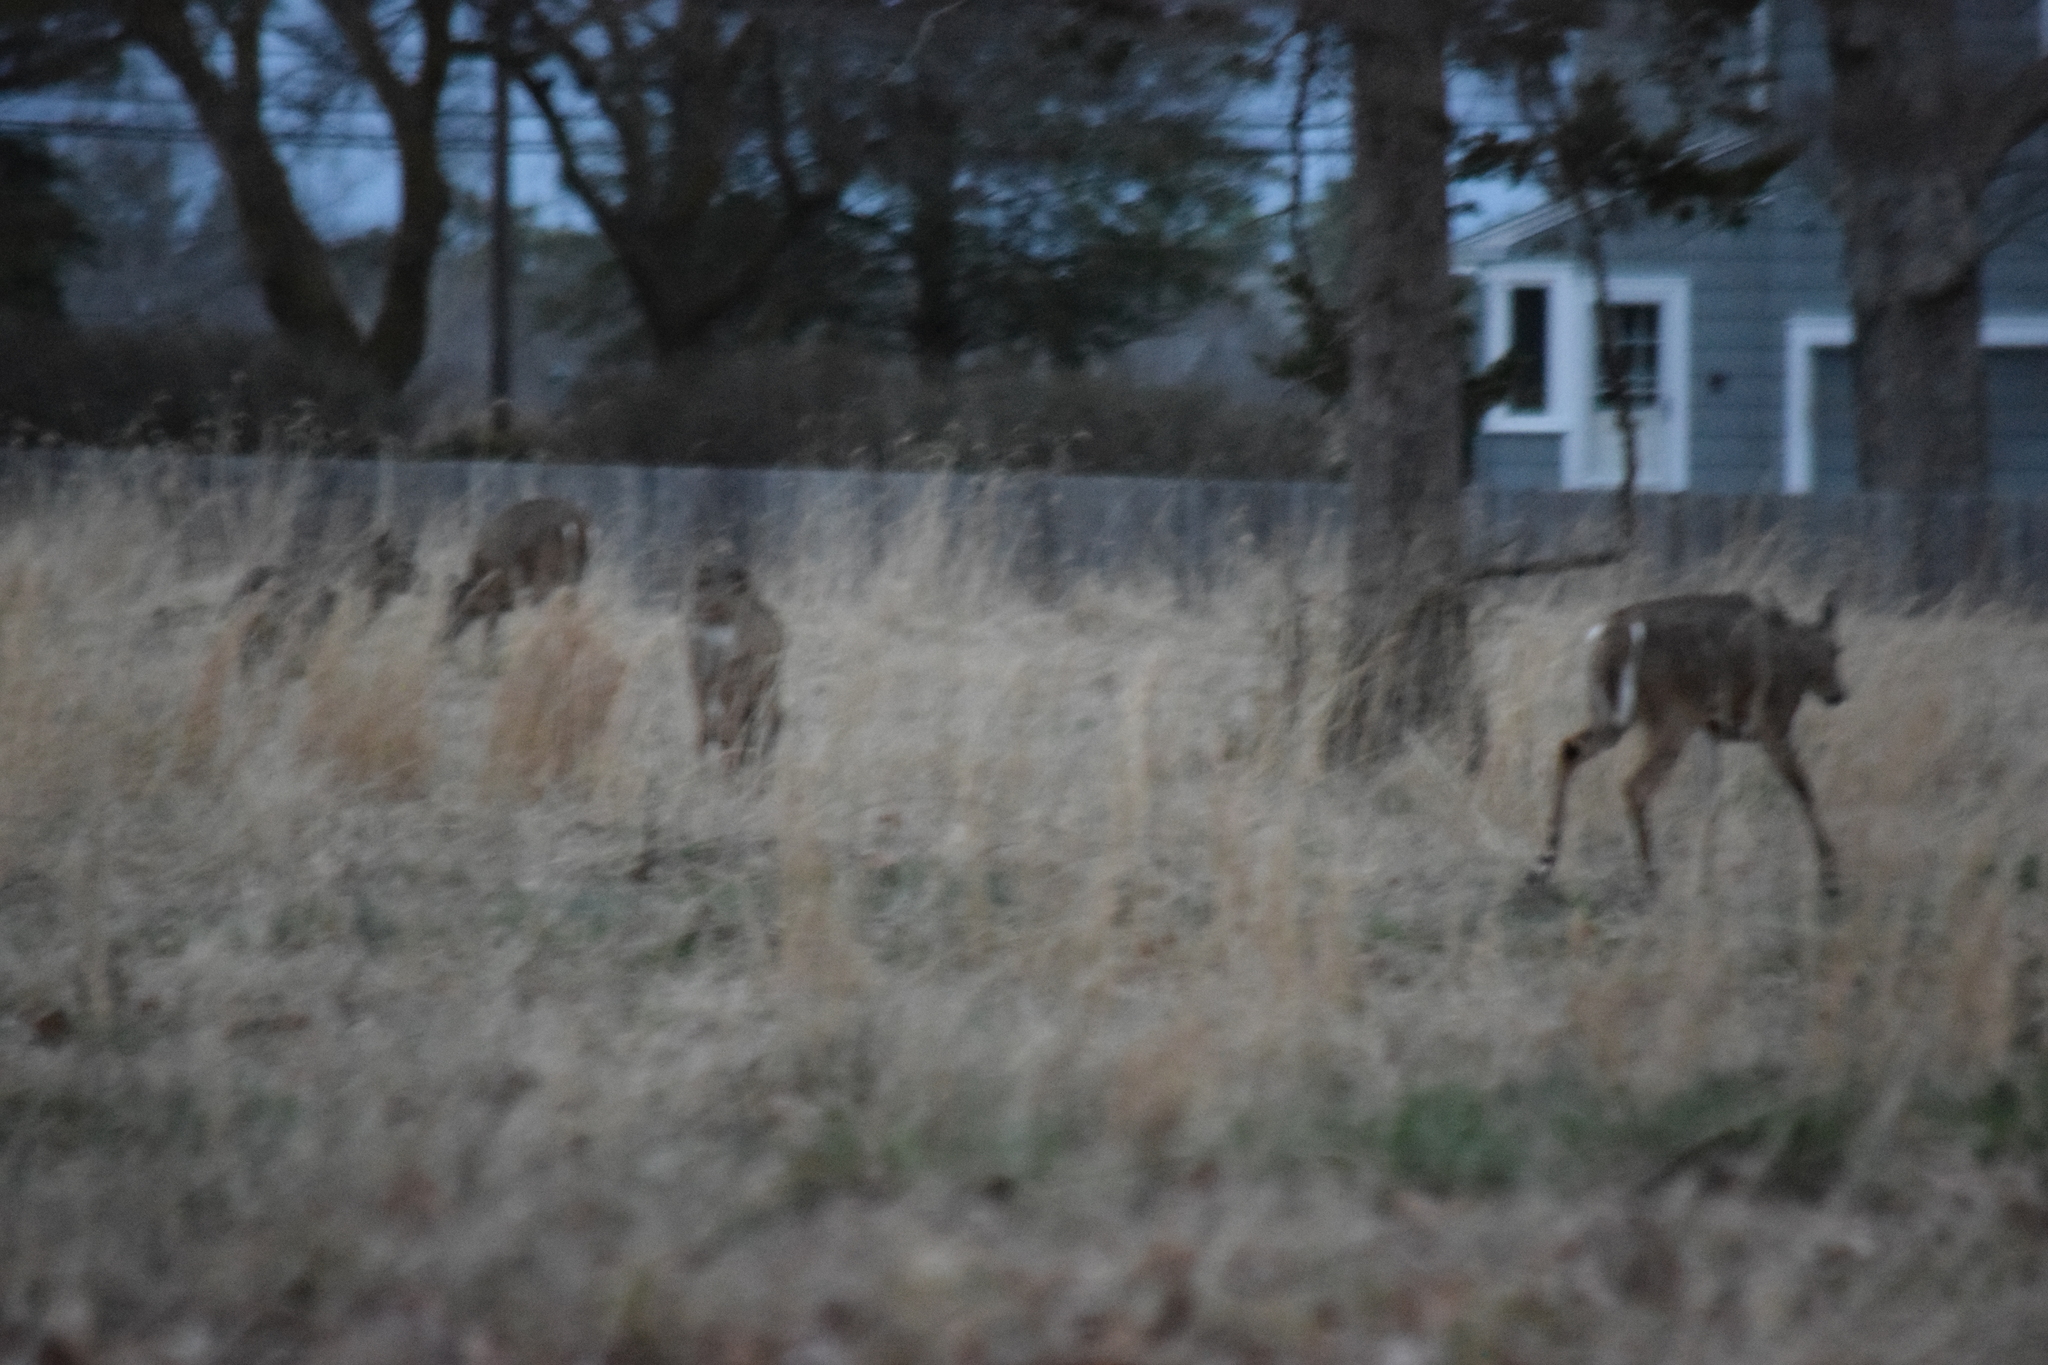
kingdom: Animalia
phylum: Chordata
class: Mammalia
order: Artiodactyla
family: Cervidae
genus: Odocoileus
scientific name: Odocoileus virginianus
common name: White-tailed deer
